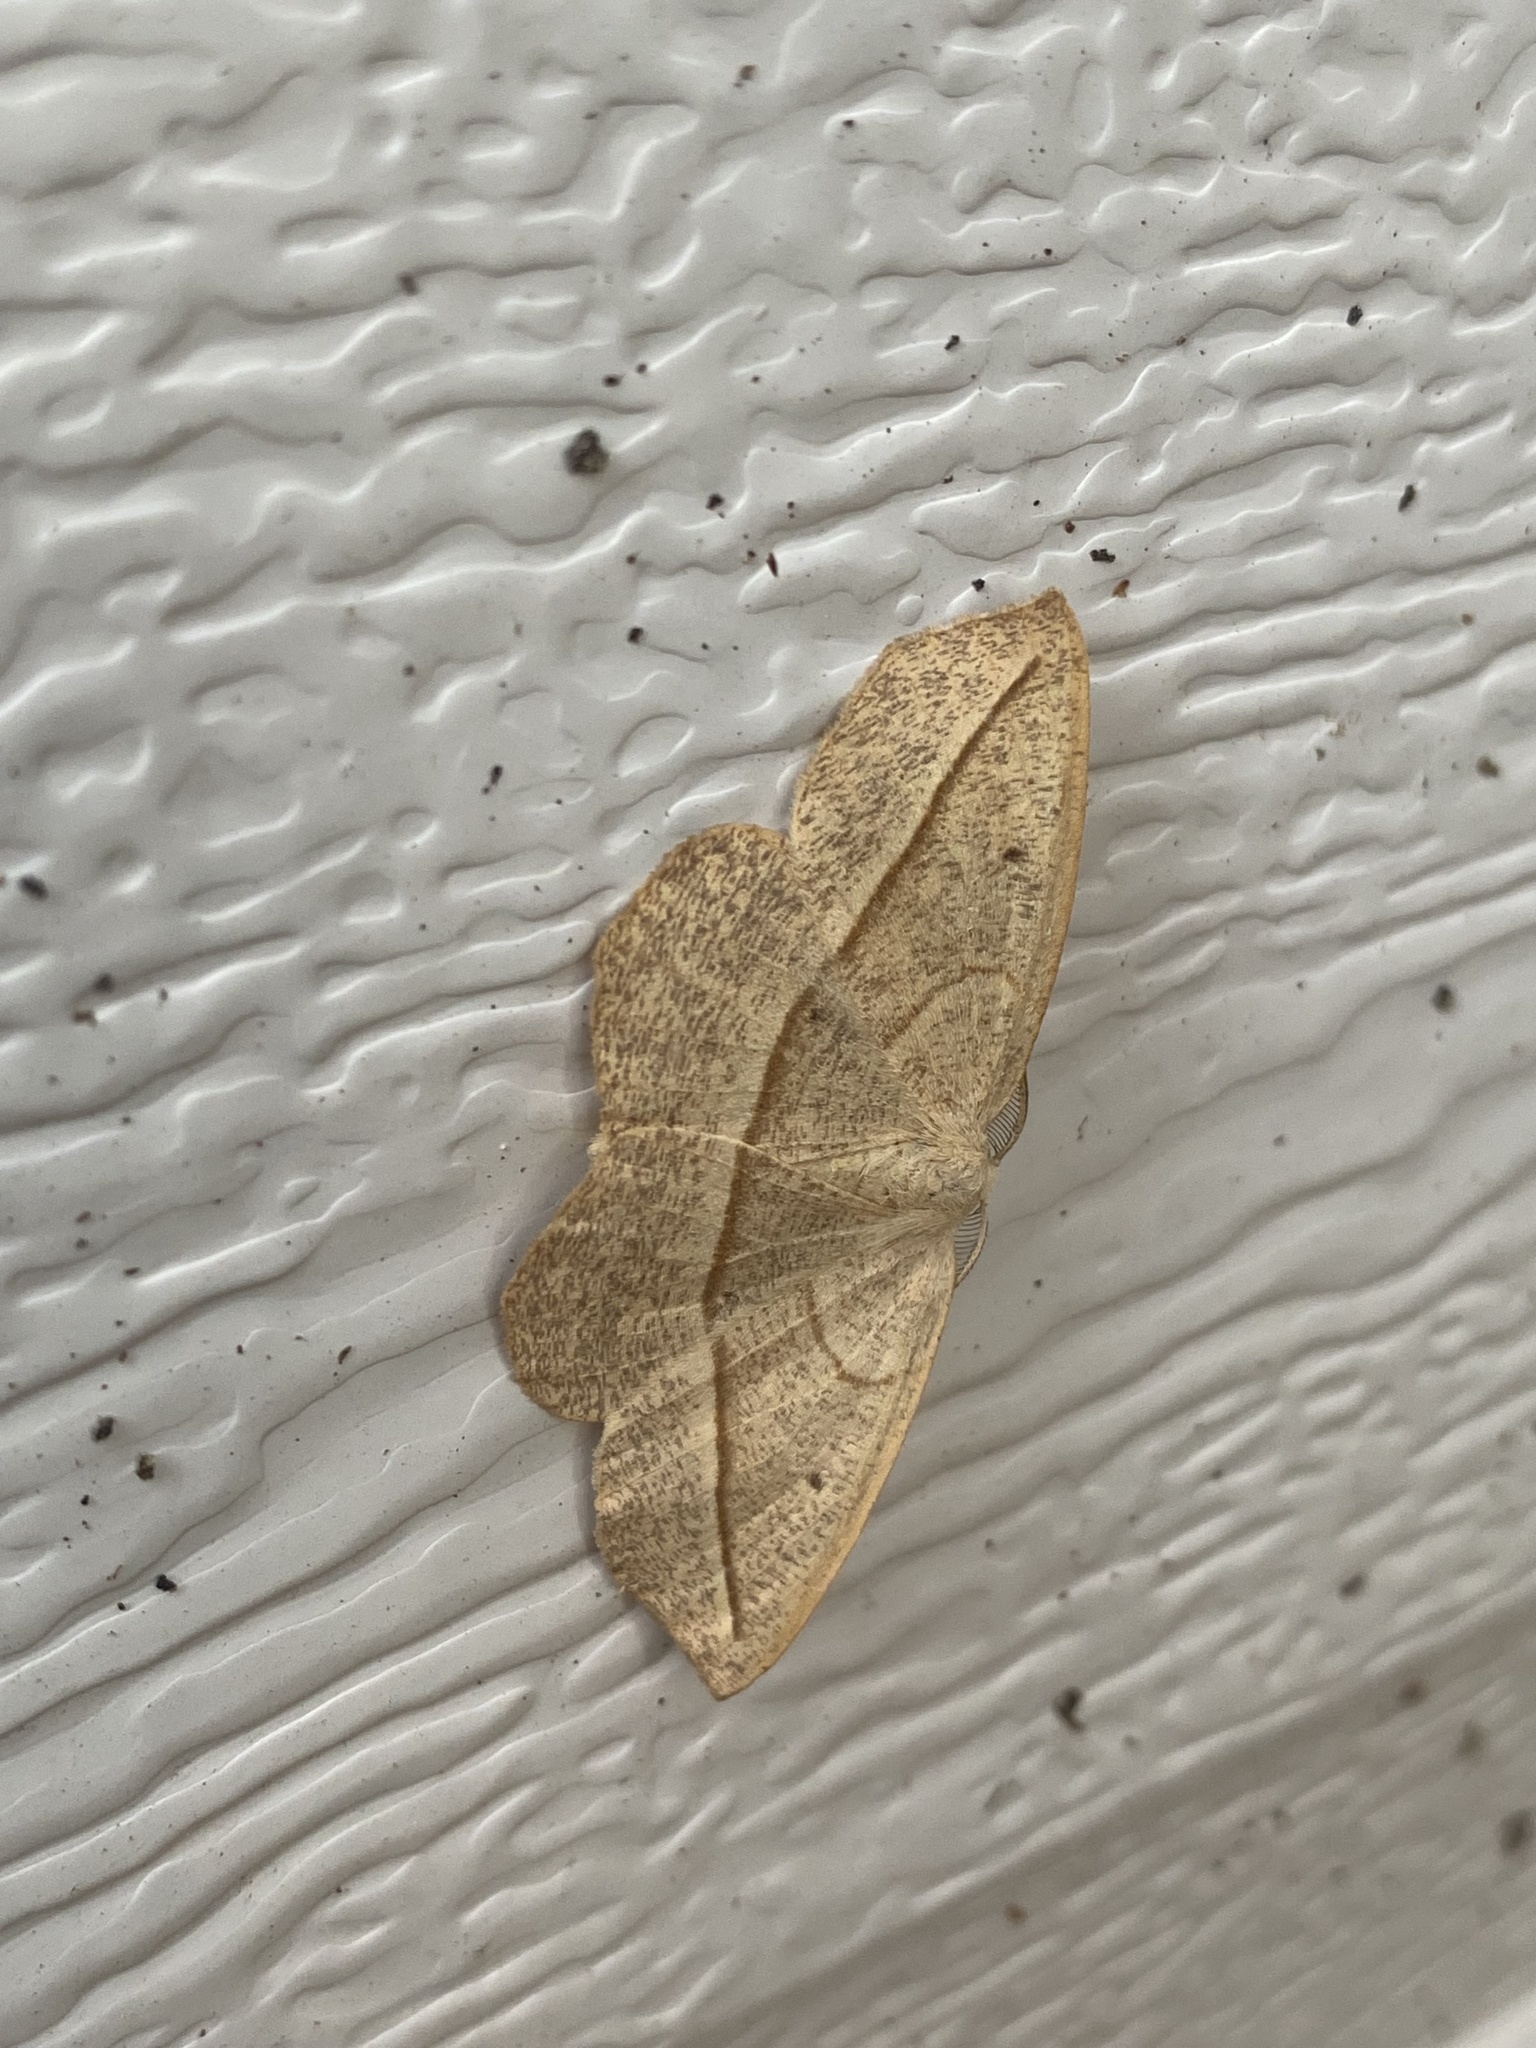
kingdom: Animalia
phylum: Arthropoda
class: Insecta
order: Lepidoptera
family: Geometridae
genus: Eusarca
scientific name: Eusarca confusaria
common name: Confused eusarca
